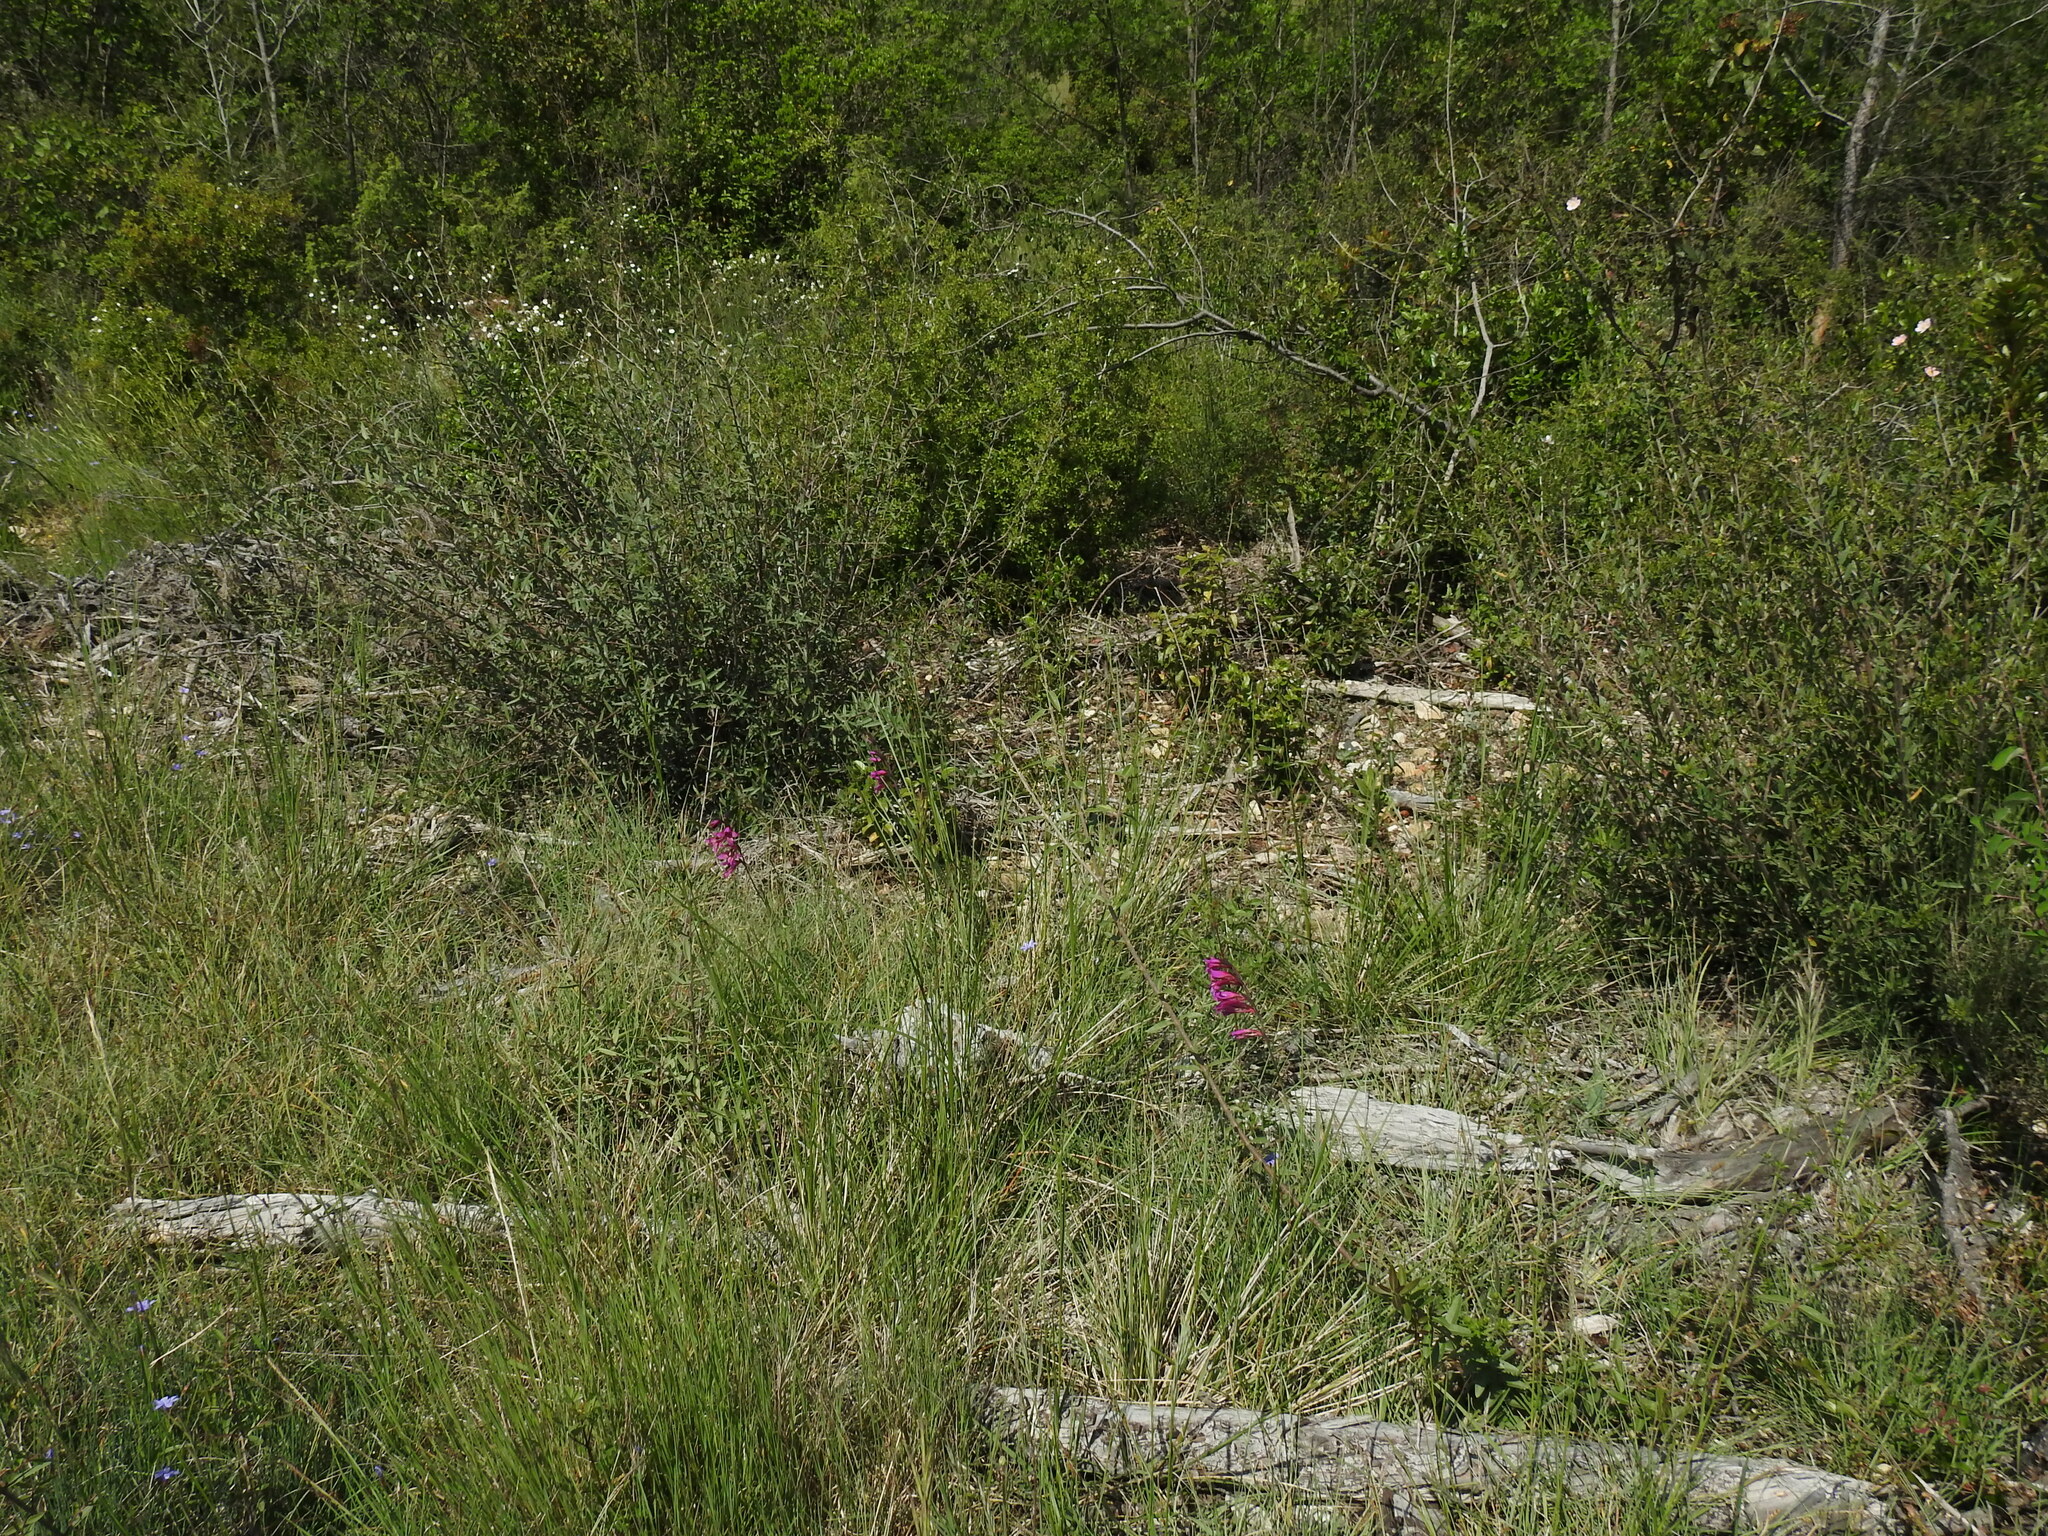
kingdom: Plantae
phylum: Tracheophyta
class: Liliopsida
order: Asparagales
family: Iridaceae
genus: Gladiolus
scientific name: Gladiolus dubius
